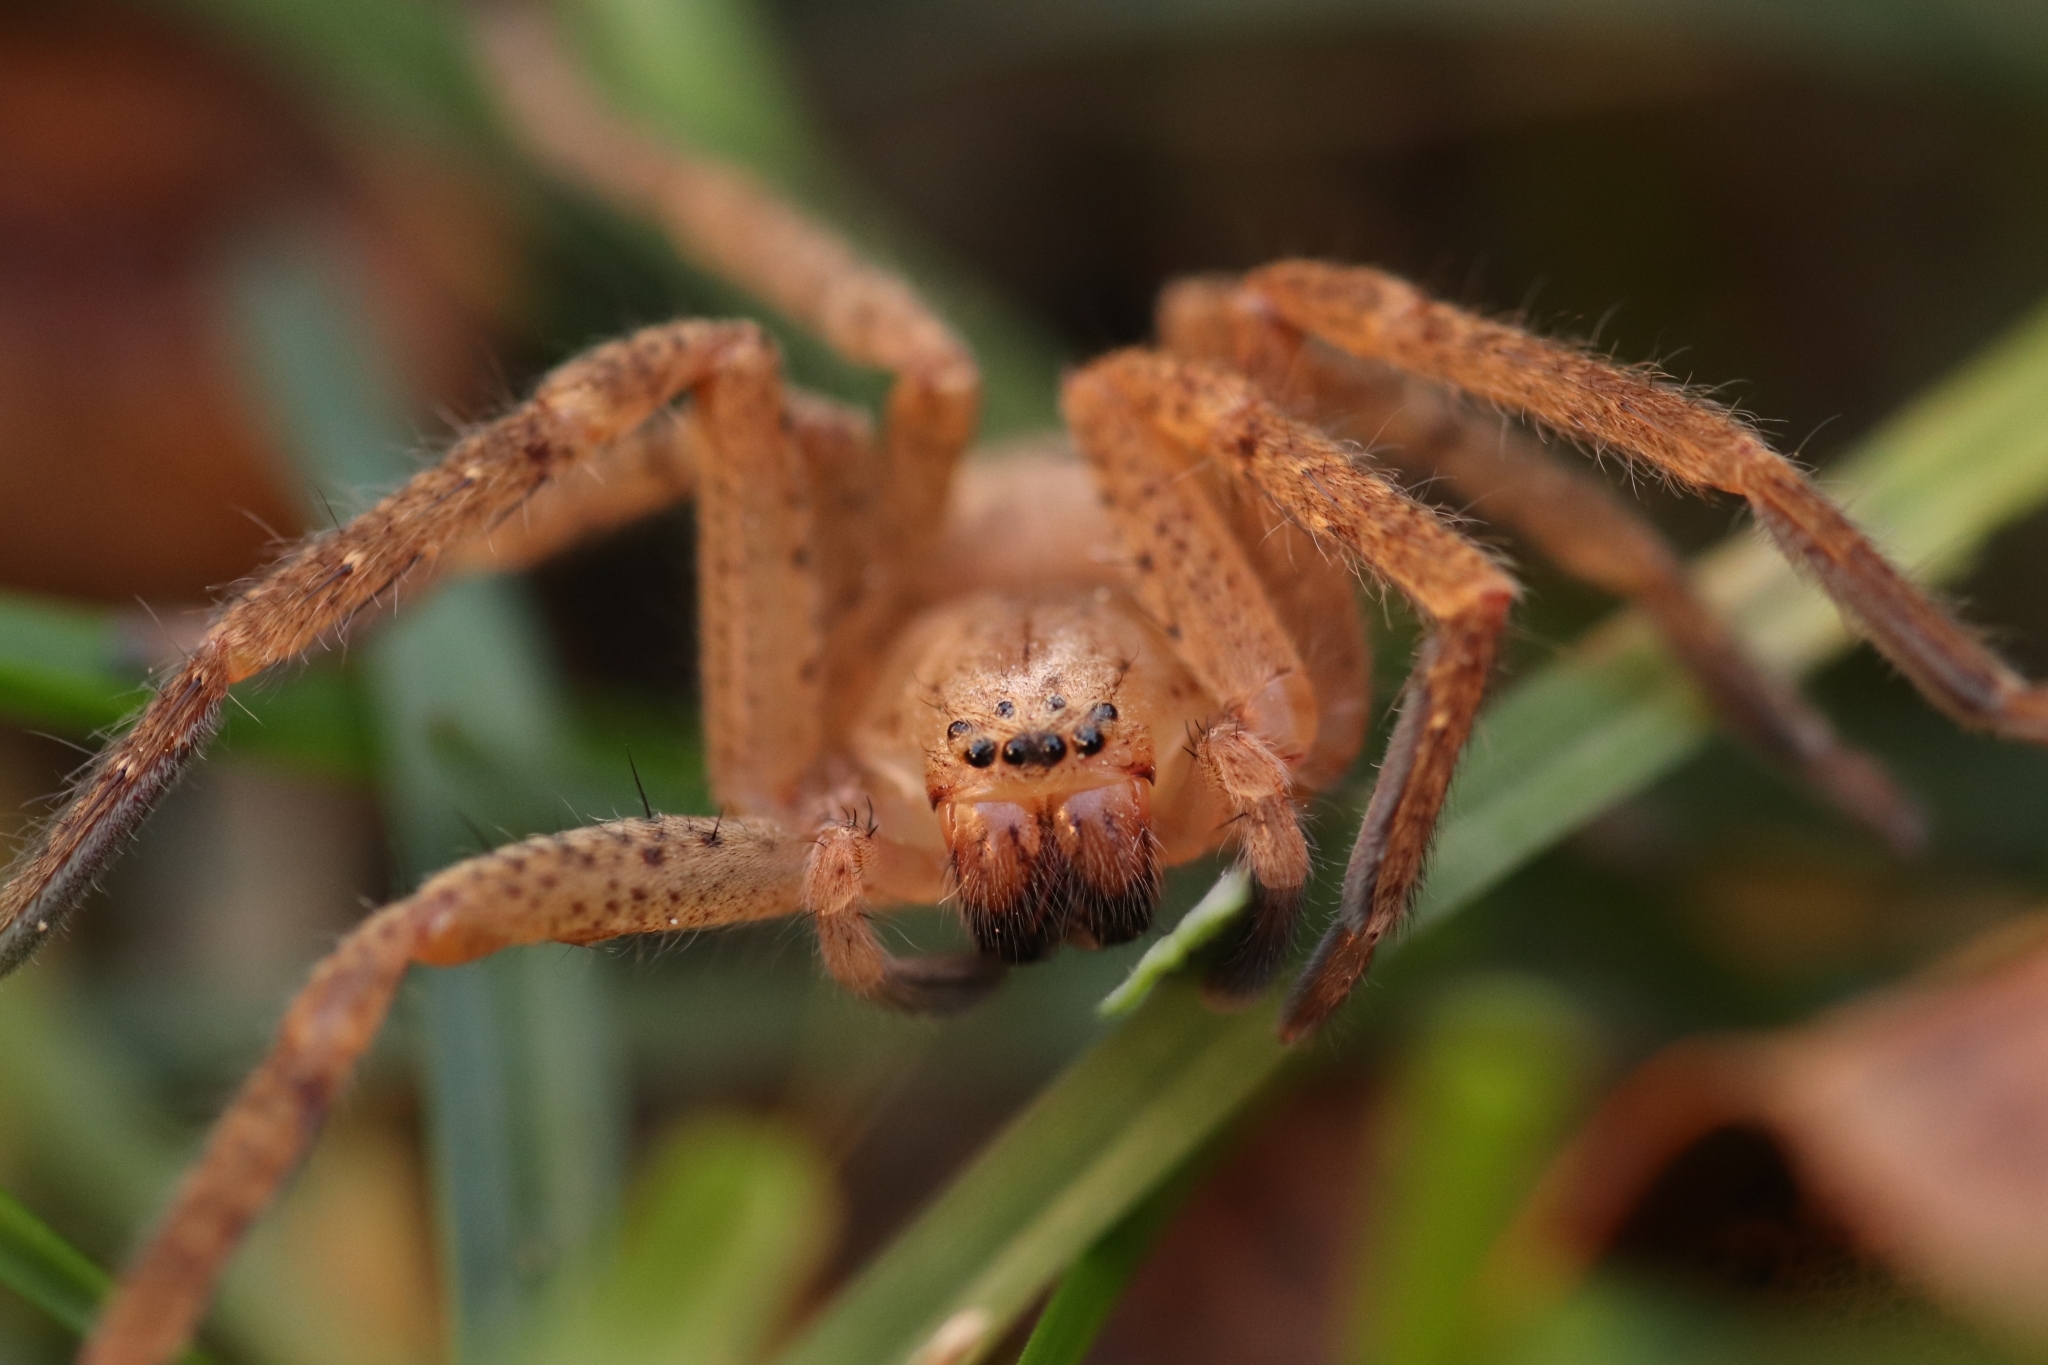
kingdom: Animalia
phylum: Arthropoda
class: Arachnida
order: Araneae
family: Sparassidae
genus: Olios
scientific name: Olios argelasius
